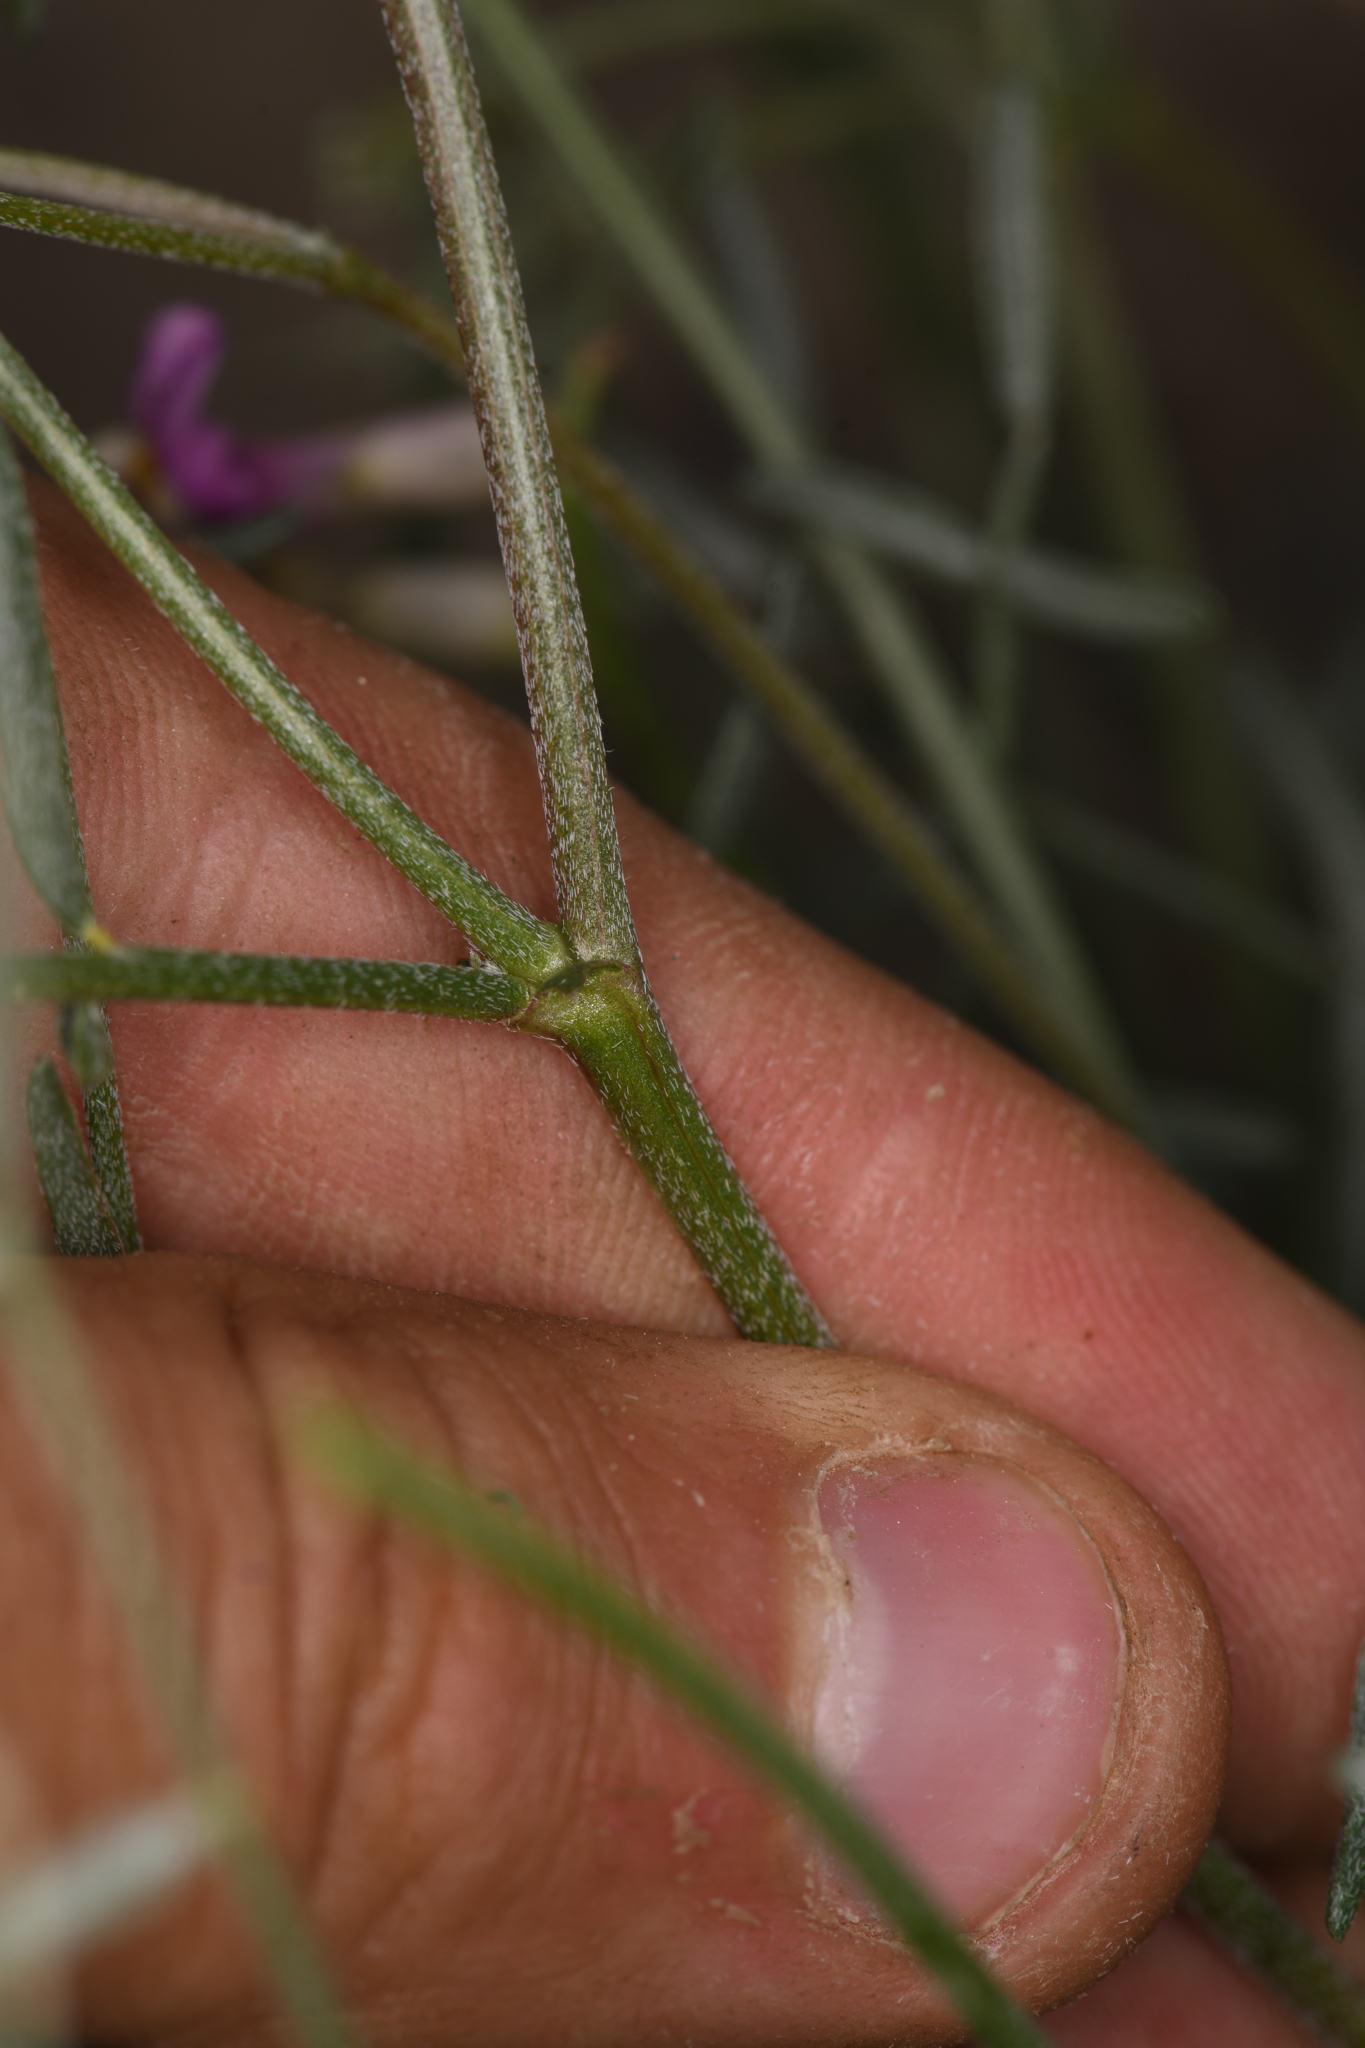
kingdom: Plantae
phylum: Tracheophyta
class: Magnoliopsida
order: Fabales
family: Fabaceae
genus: Astragalus
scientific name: Astragalus casei
